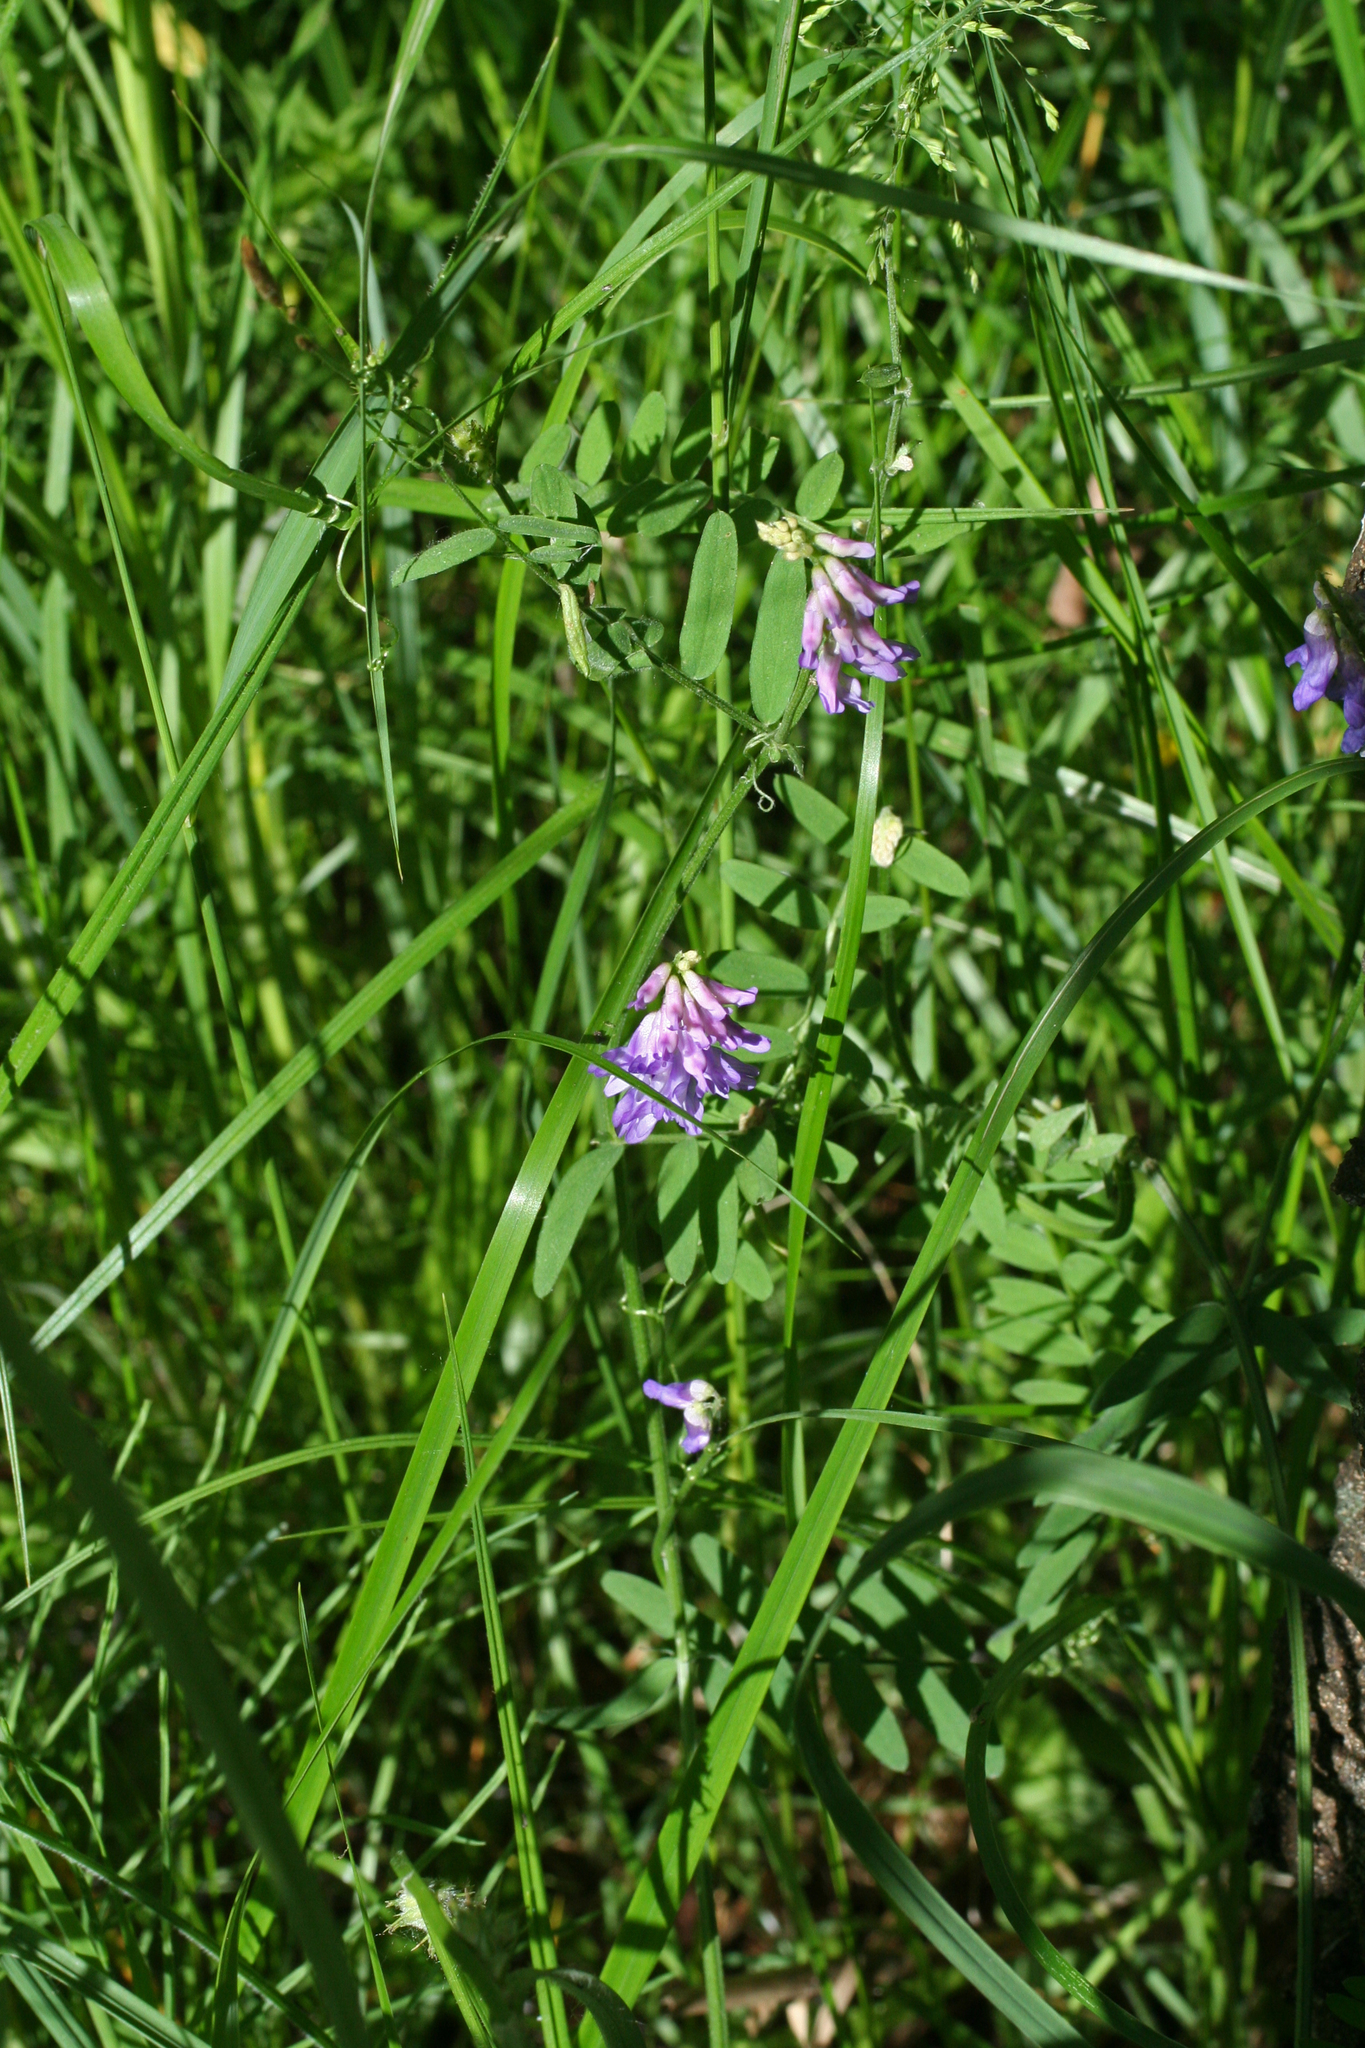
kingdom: Plantae
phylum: Tracheophyta
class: Magnoliopsida
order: Fabales
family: Fabaceae
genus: Vicia
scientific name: Vicia cracca
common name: Bird vetch
